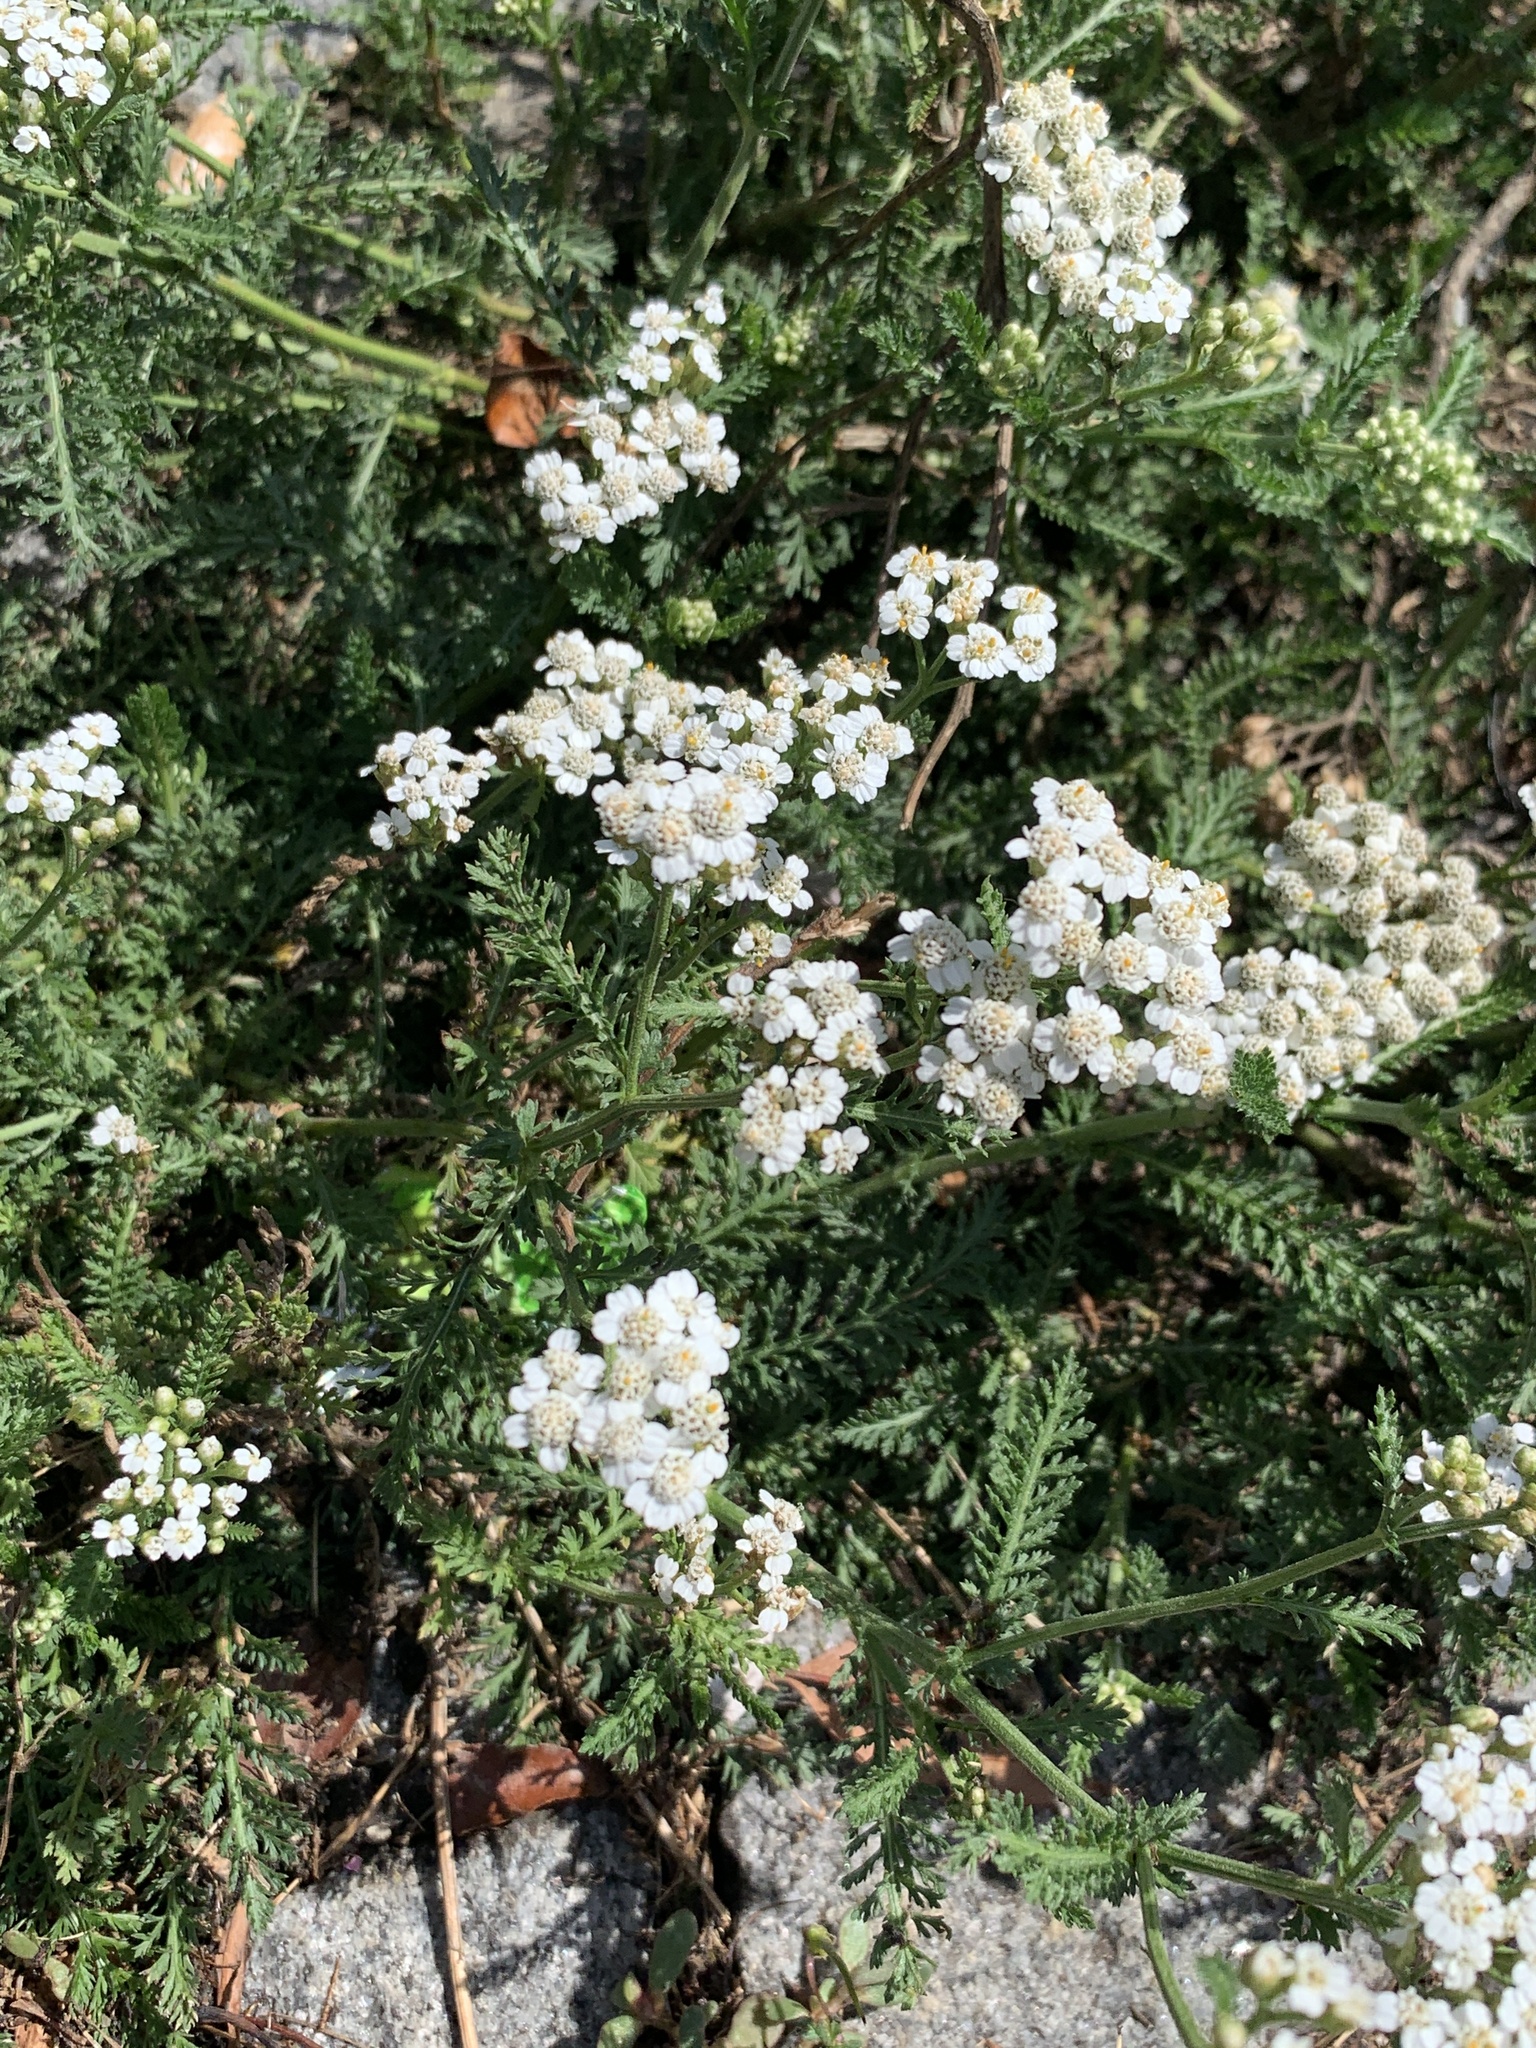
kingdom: Plantae
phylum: Tracheophyta
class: Magnoliopsida
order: Asterales
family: Asteraceae
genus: Achillea
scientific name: Achillea millefolium
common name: Yarrow
